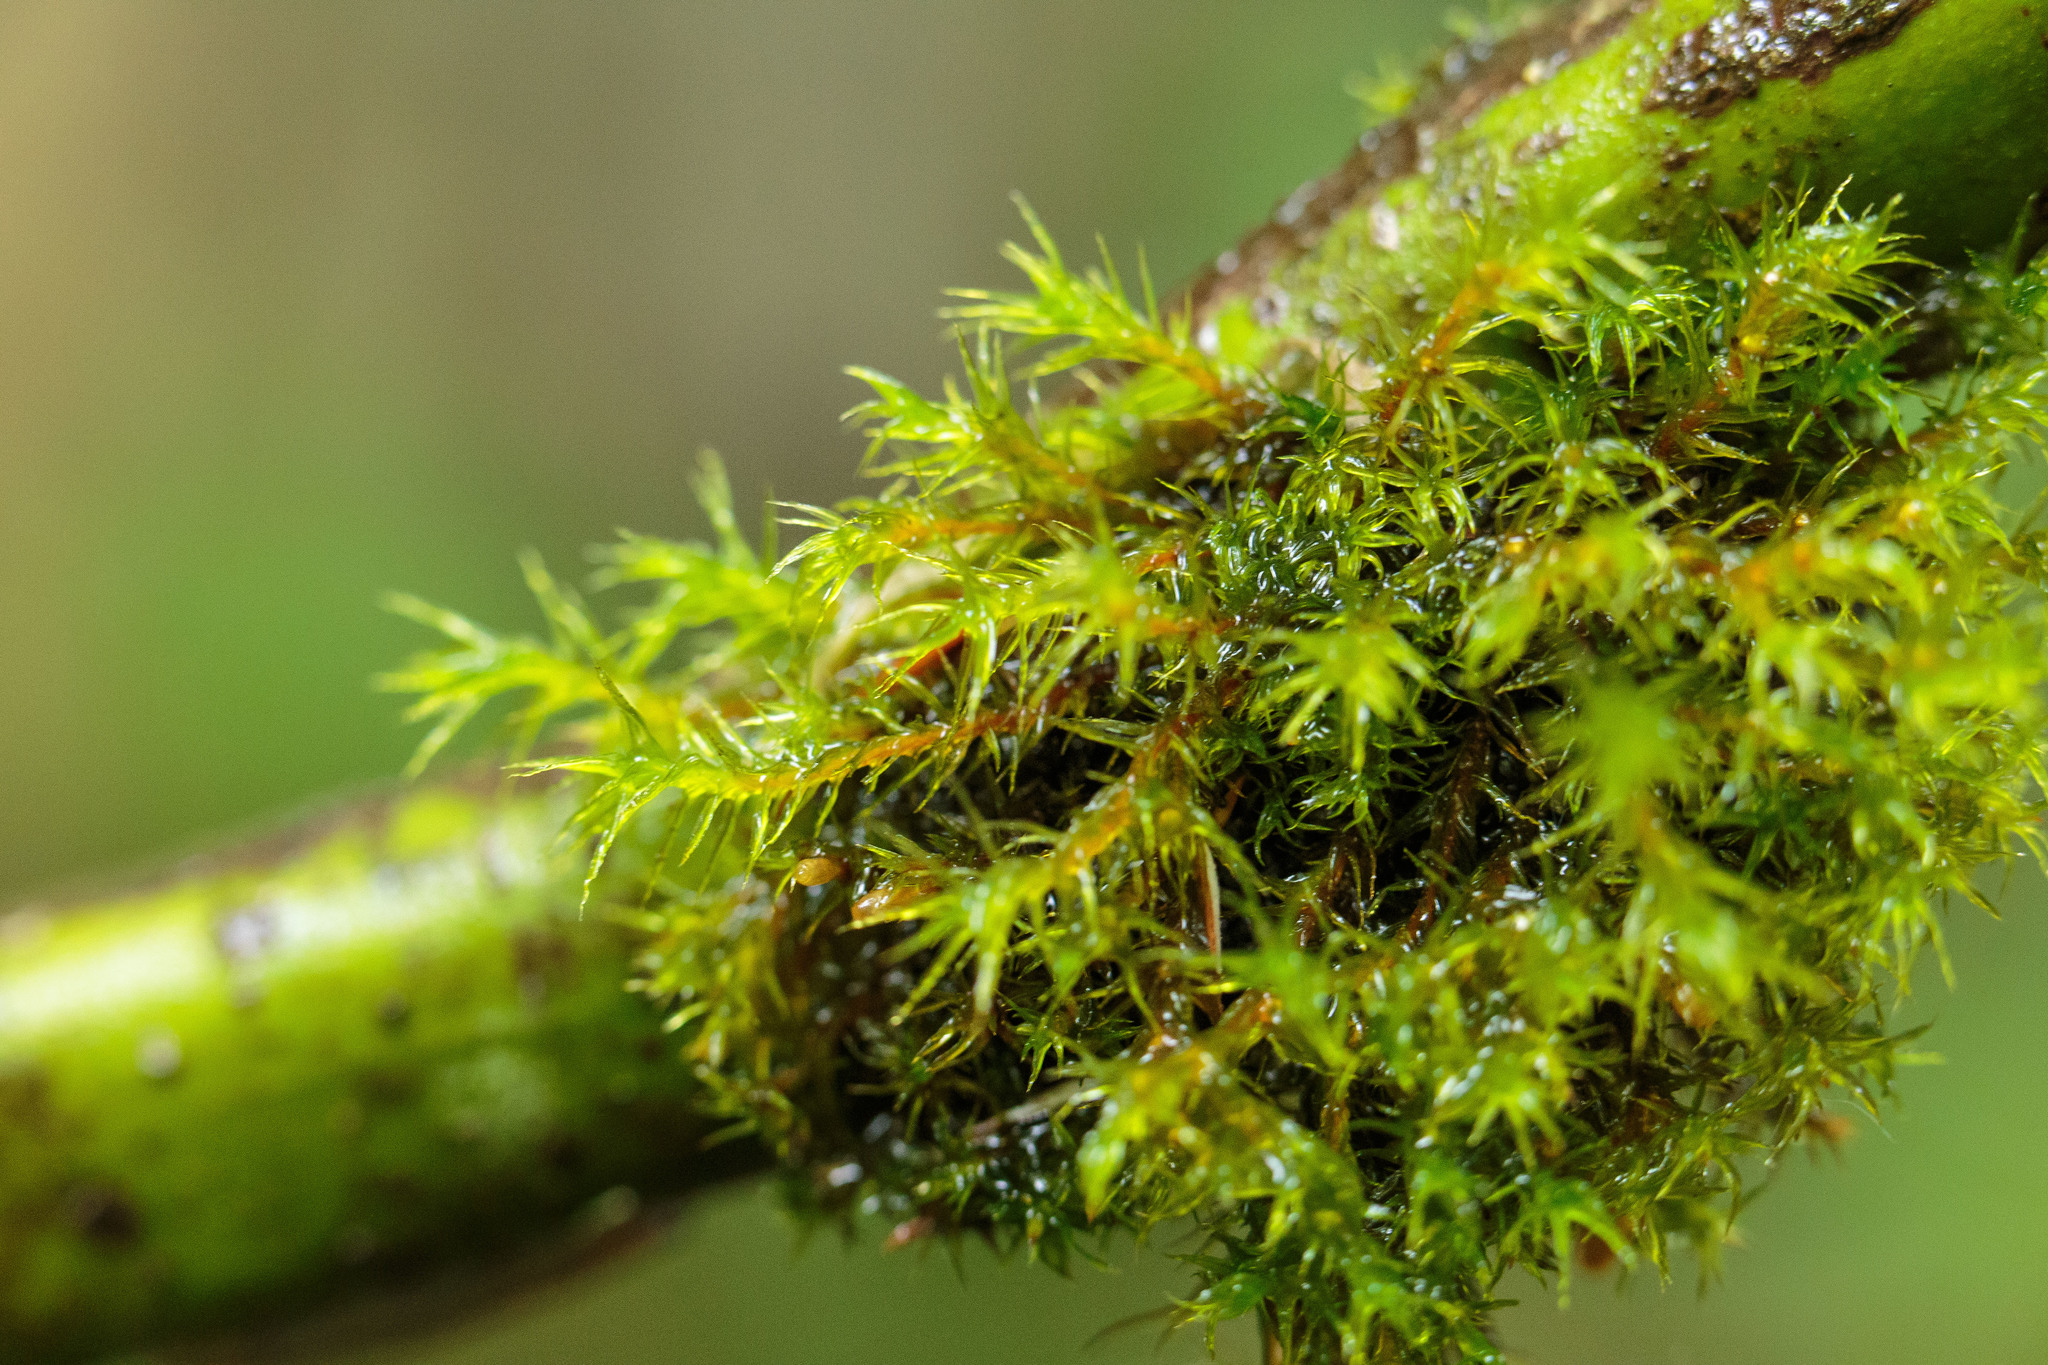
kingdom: Plantae
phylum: Bryophyta
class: Bryopsida
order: Orthotrichales
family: Orthotrichaceae
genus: Pulvigera
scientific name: Pulvigera lyellii
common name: Lyell's bristle-moss
